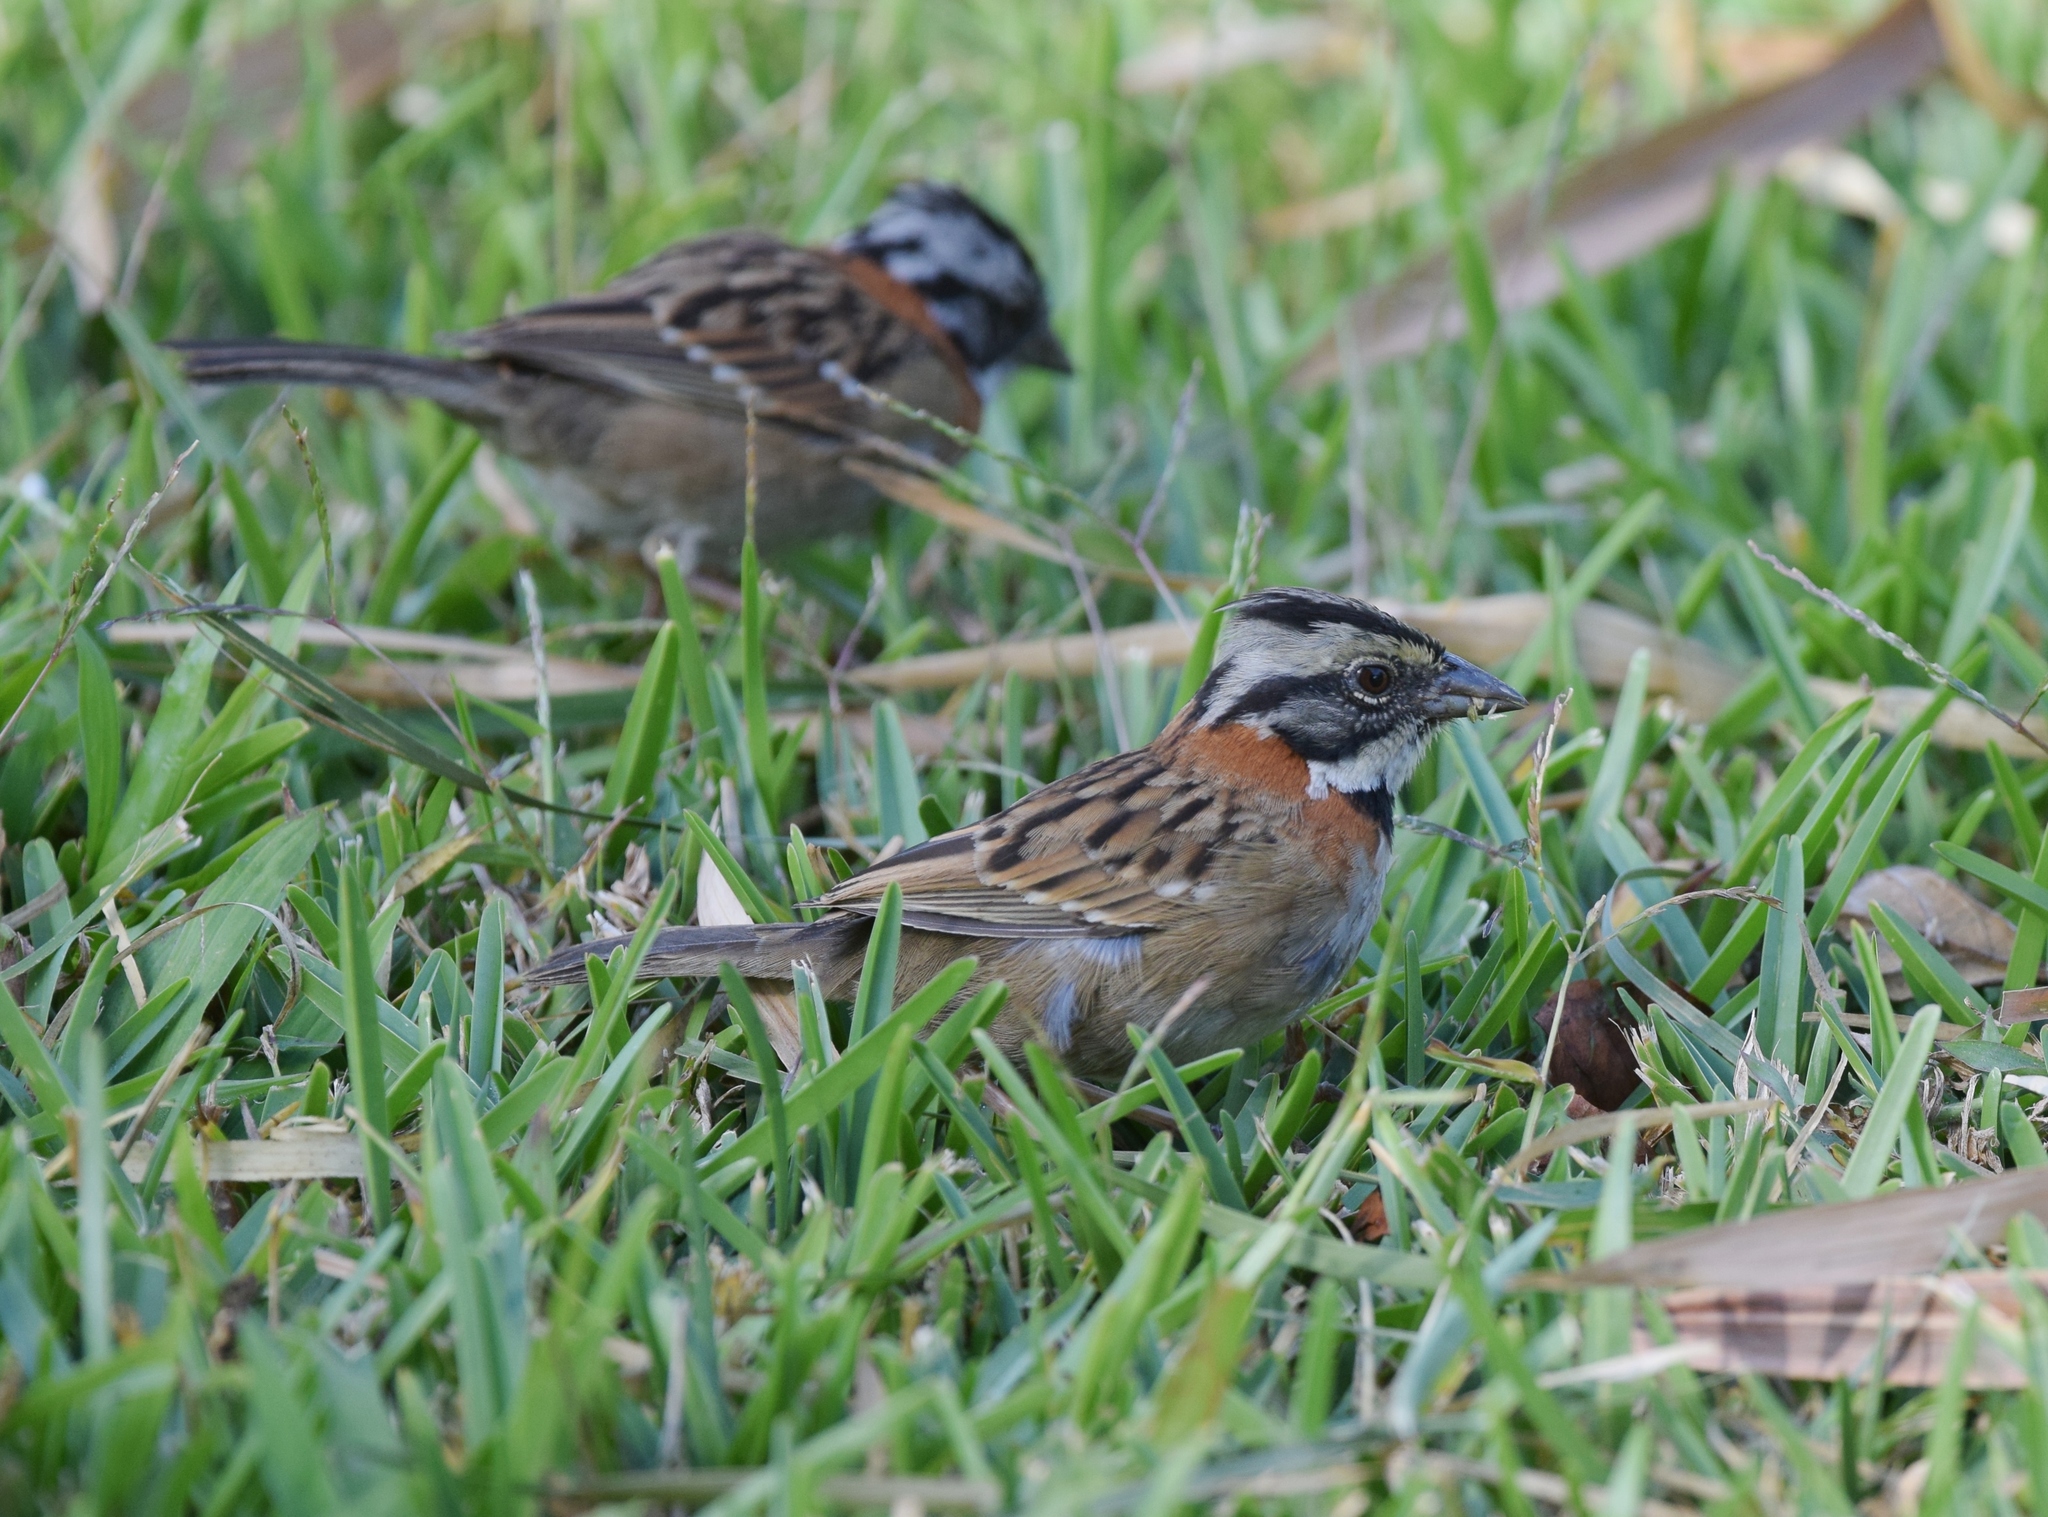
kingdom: Animalia
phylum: Chordata
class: Aves
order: Passeriformes
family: Passerellidae
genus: Zonotrichia
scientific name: Zonotrichia capensis
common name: Rufous-collared sparrow
